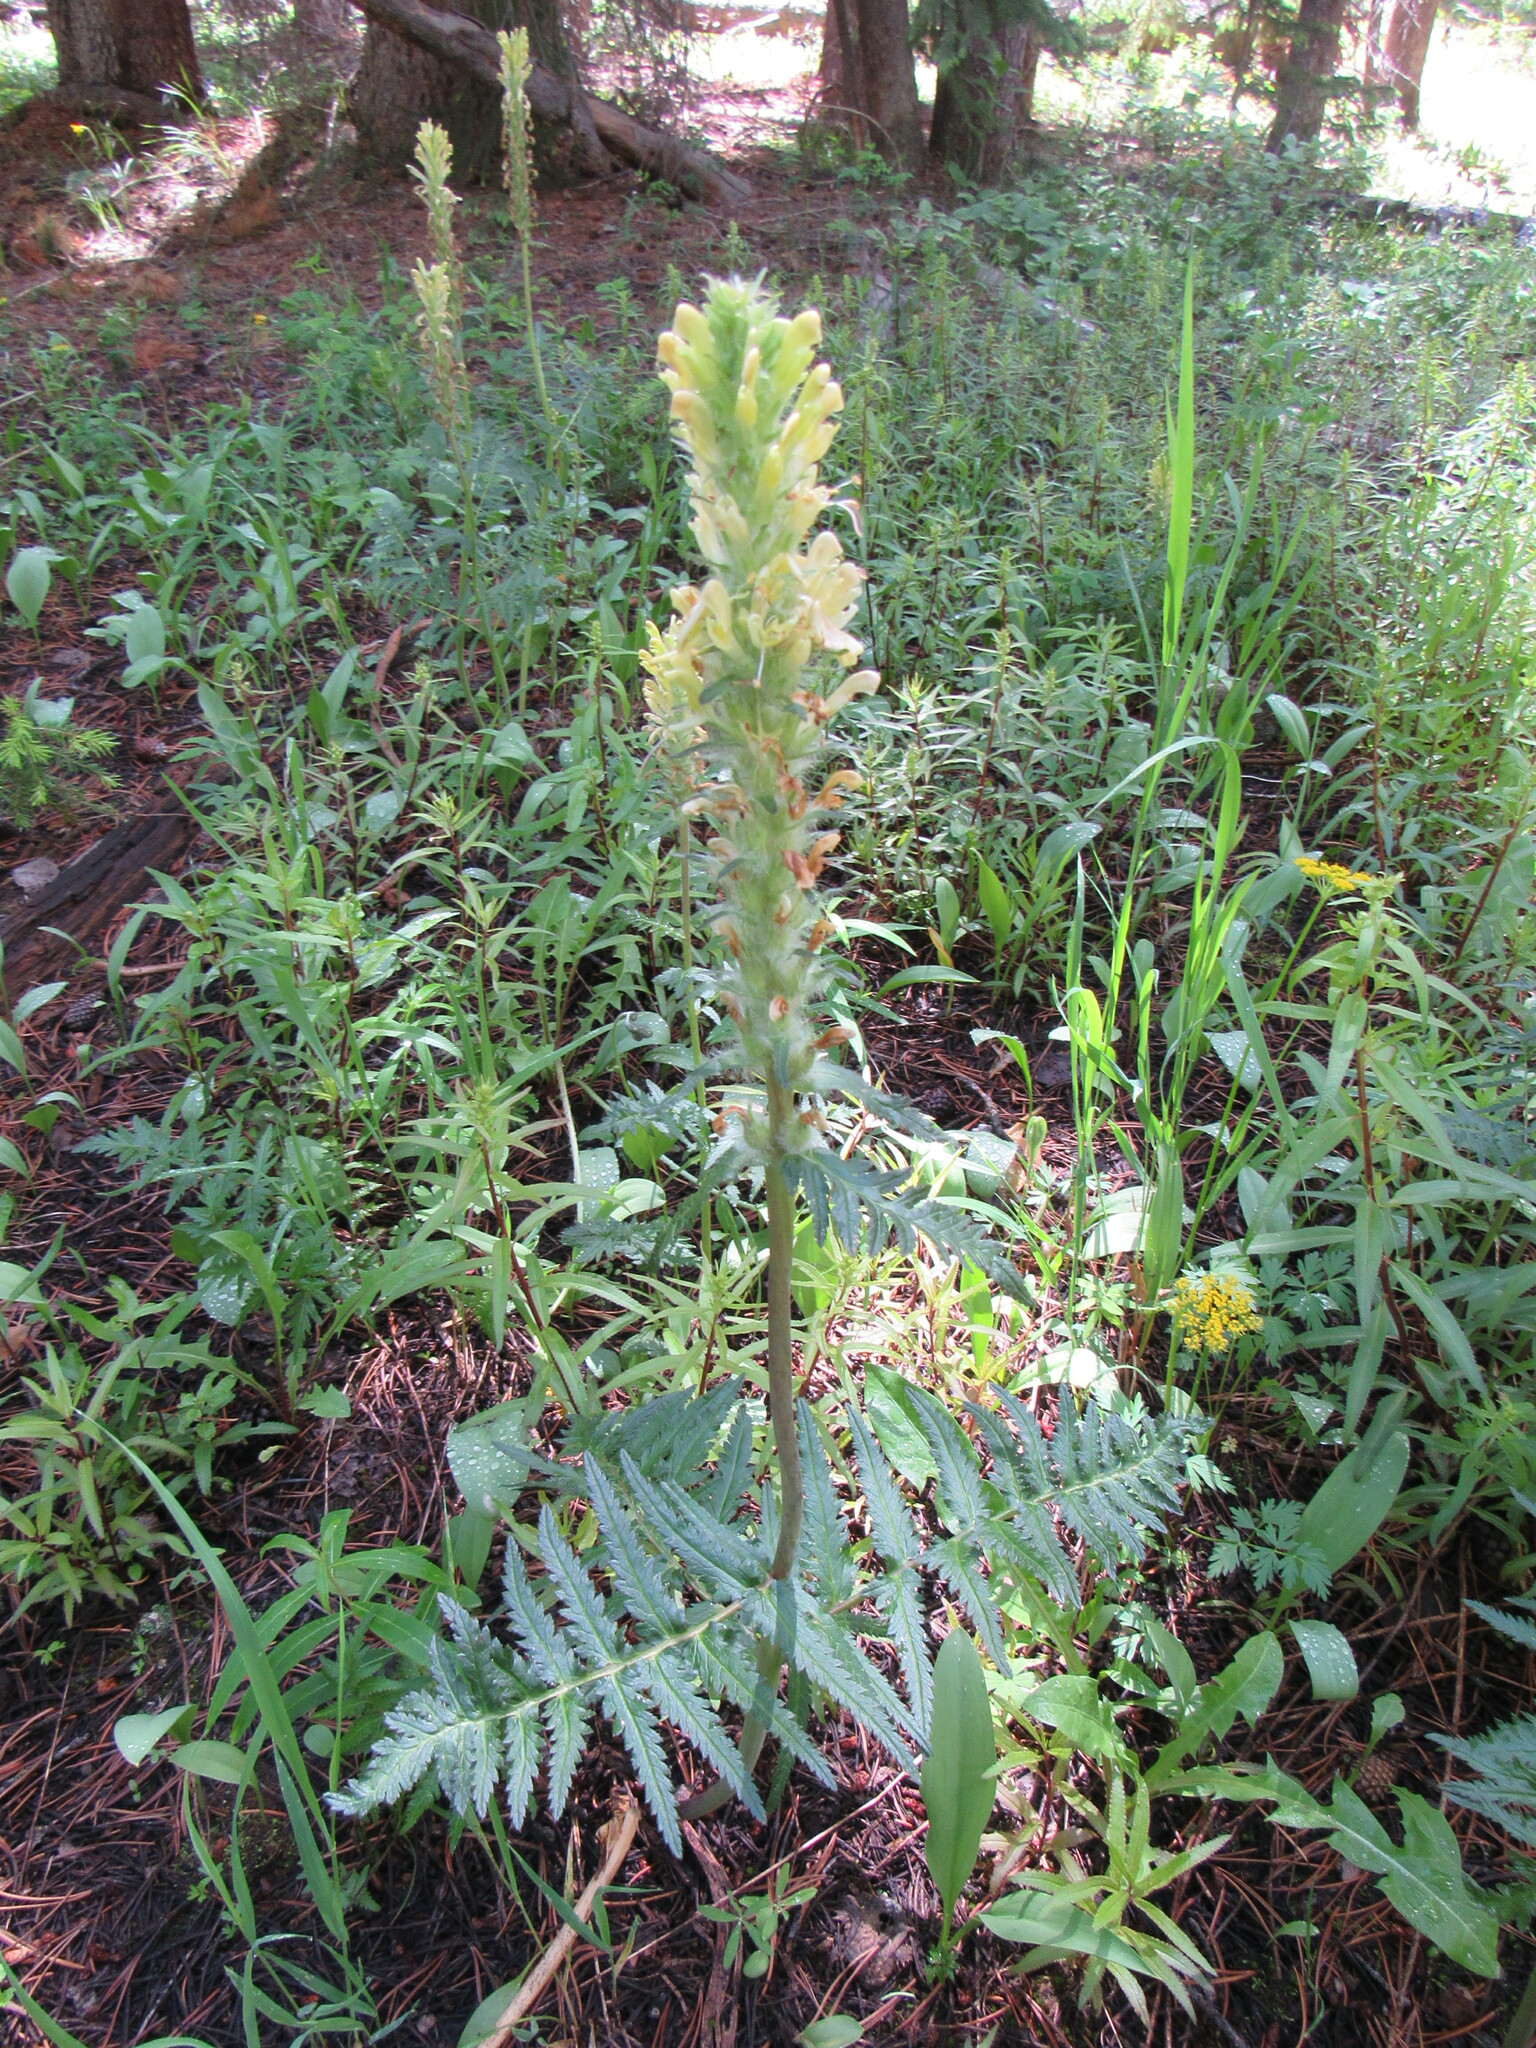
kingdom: Plantae
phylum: Tracheophyta
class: Magnoliopsida
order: Lamiales
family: Orobanchaceae
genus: Pedicularis
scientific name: Pedicularis bracteosa
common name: Bracted lousewort
